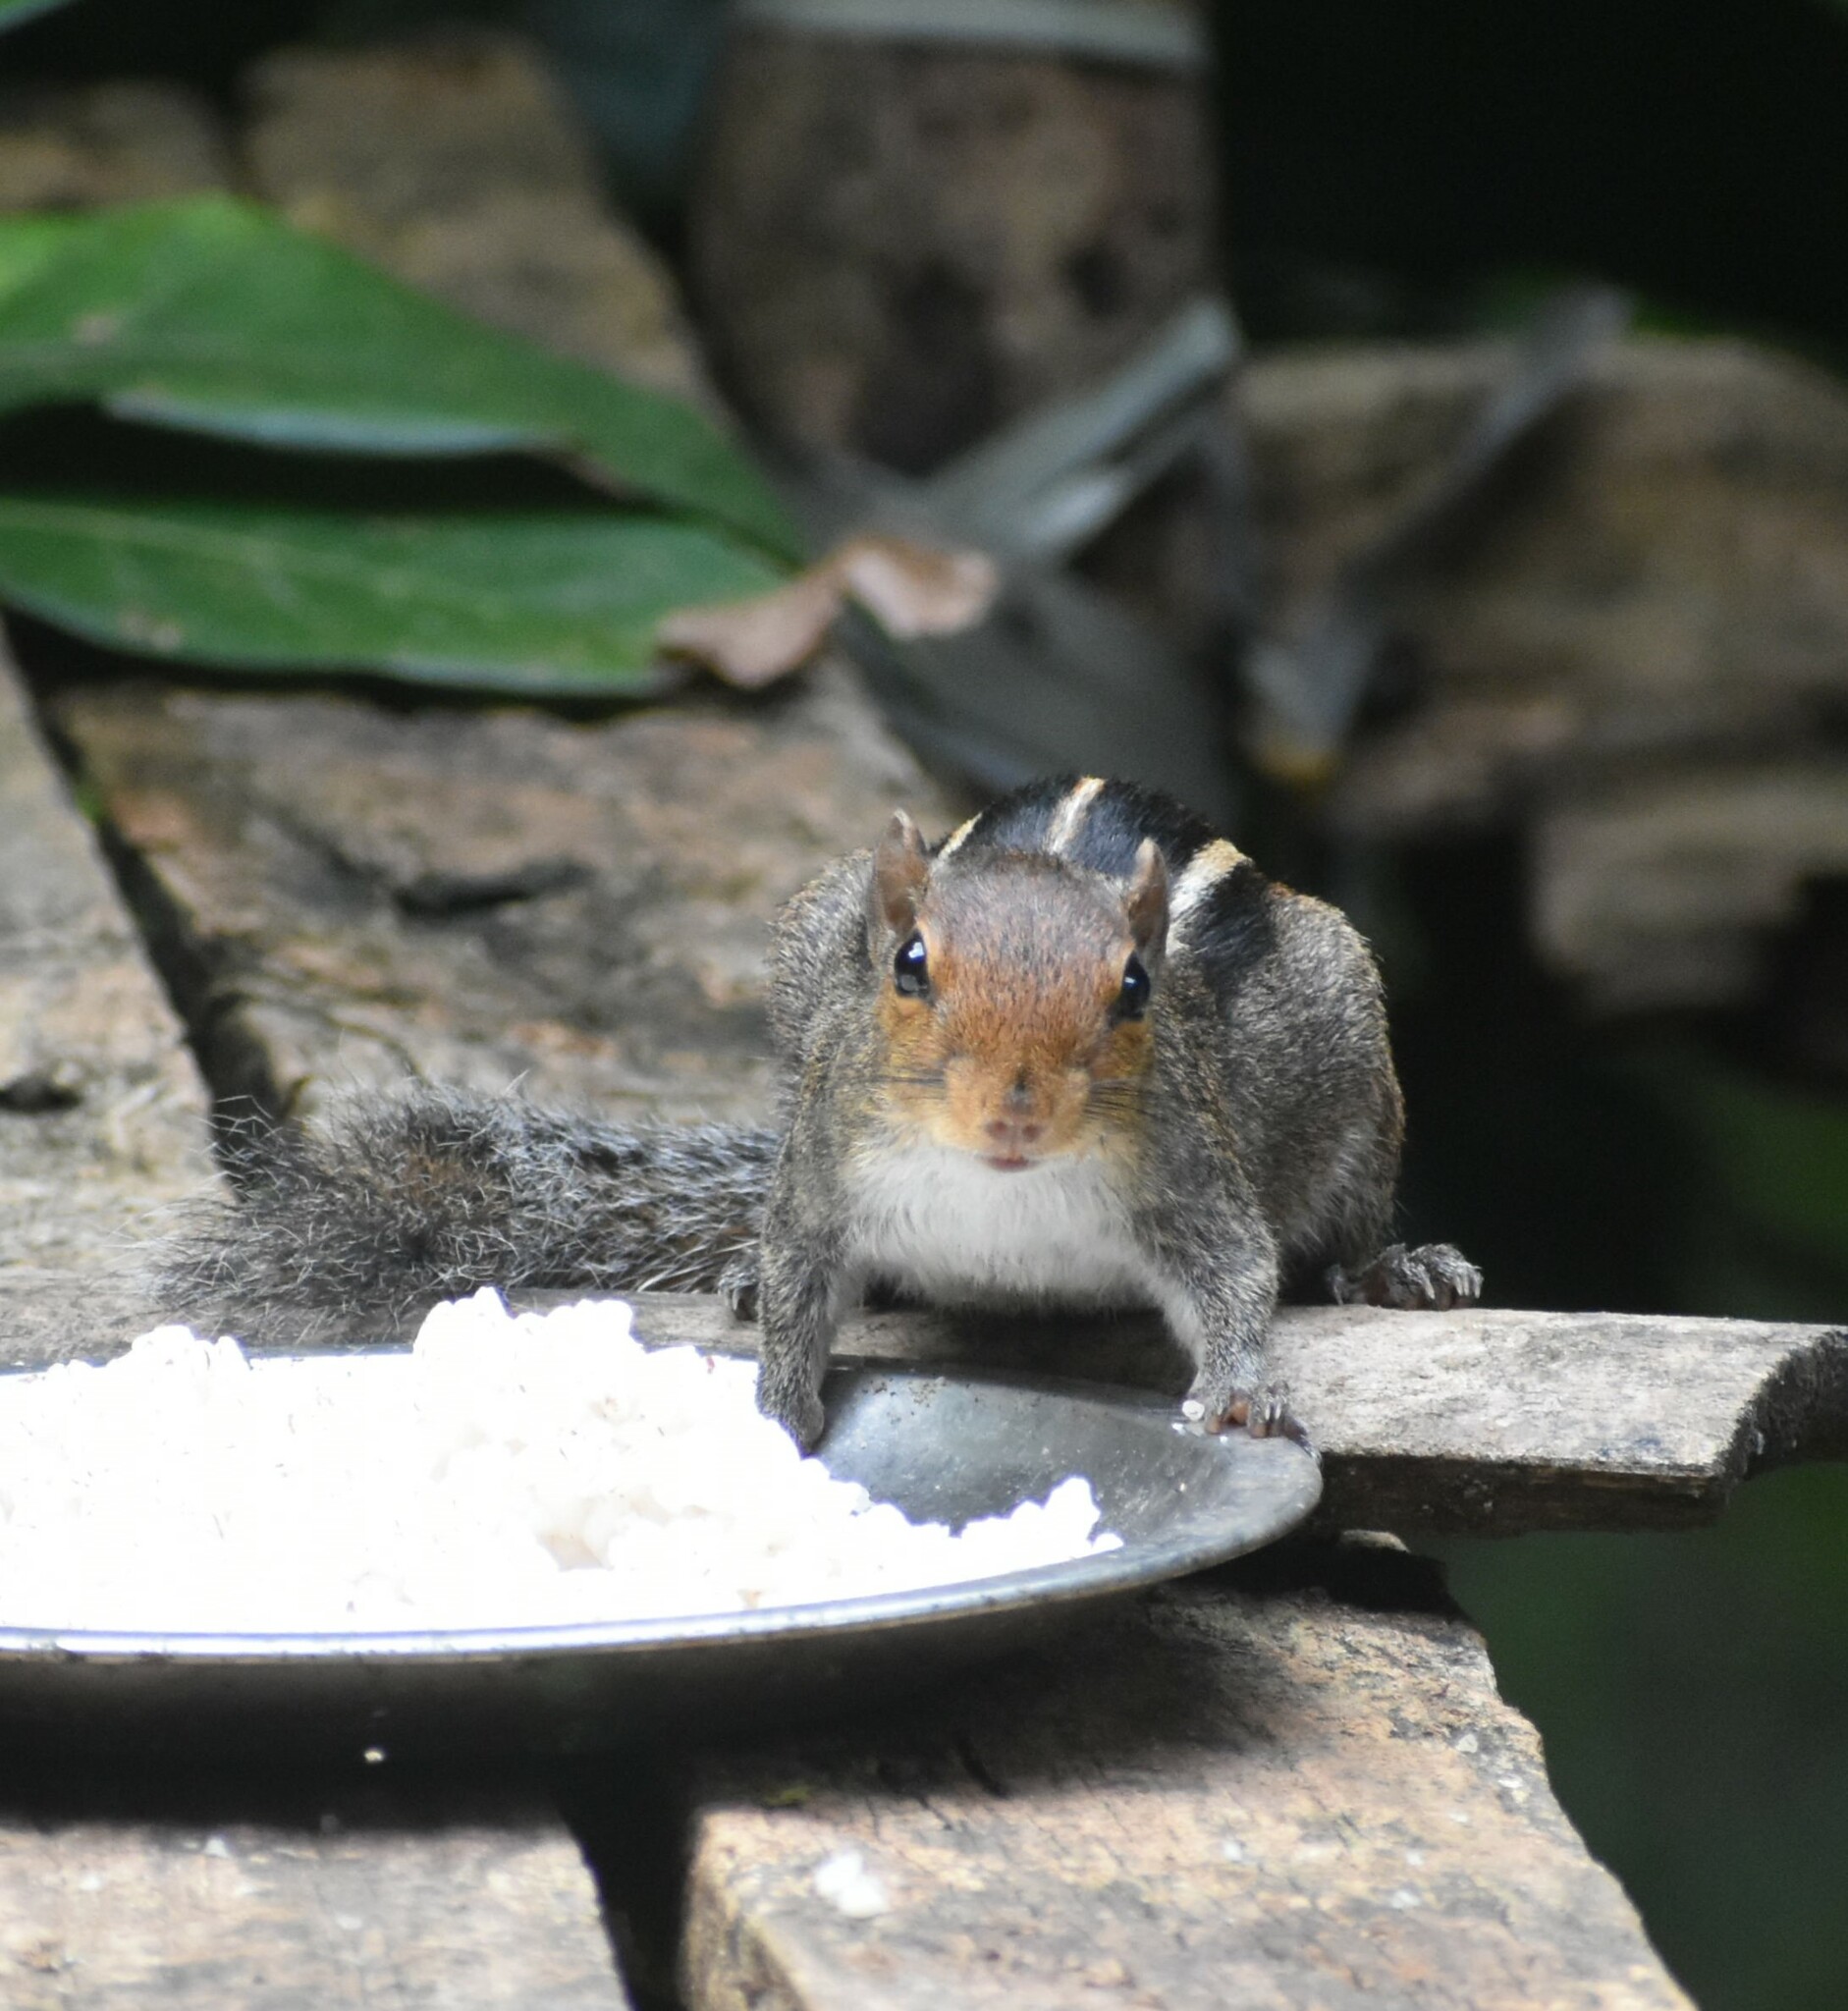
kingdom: Animalia
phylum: Chordata
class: Mammalia
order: Rodentia
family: Sciuridae
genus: Funambulus
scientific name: Funambulus tristriatus
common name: Jungle palm squirrel
